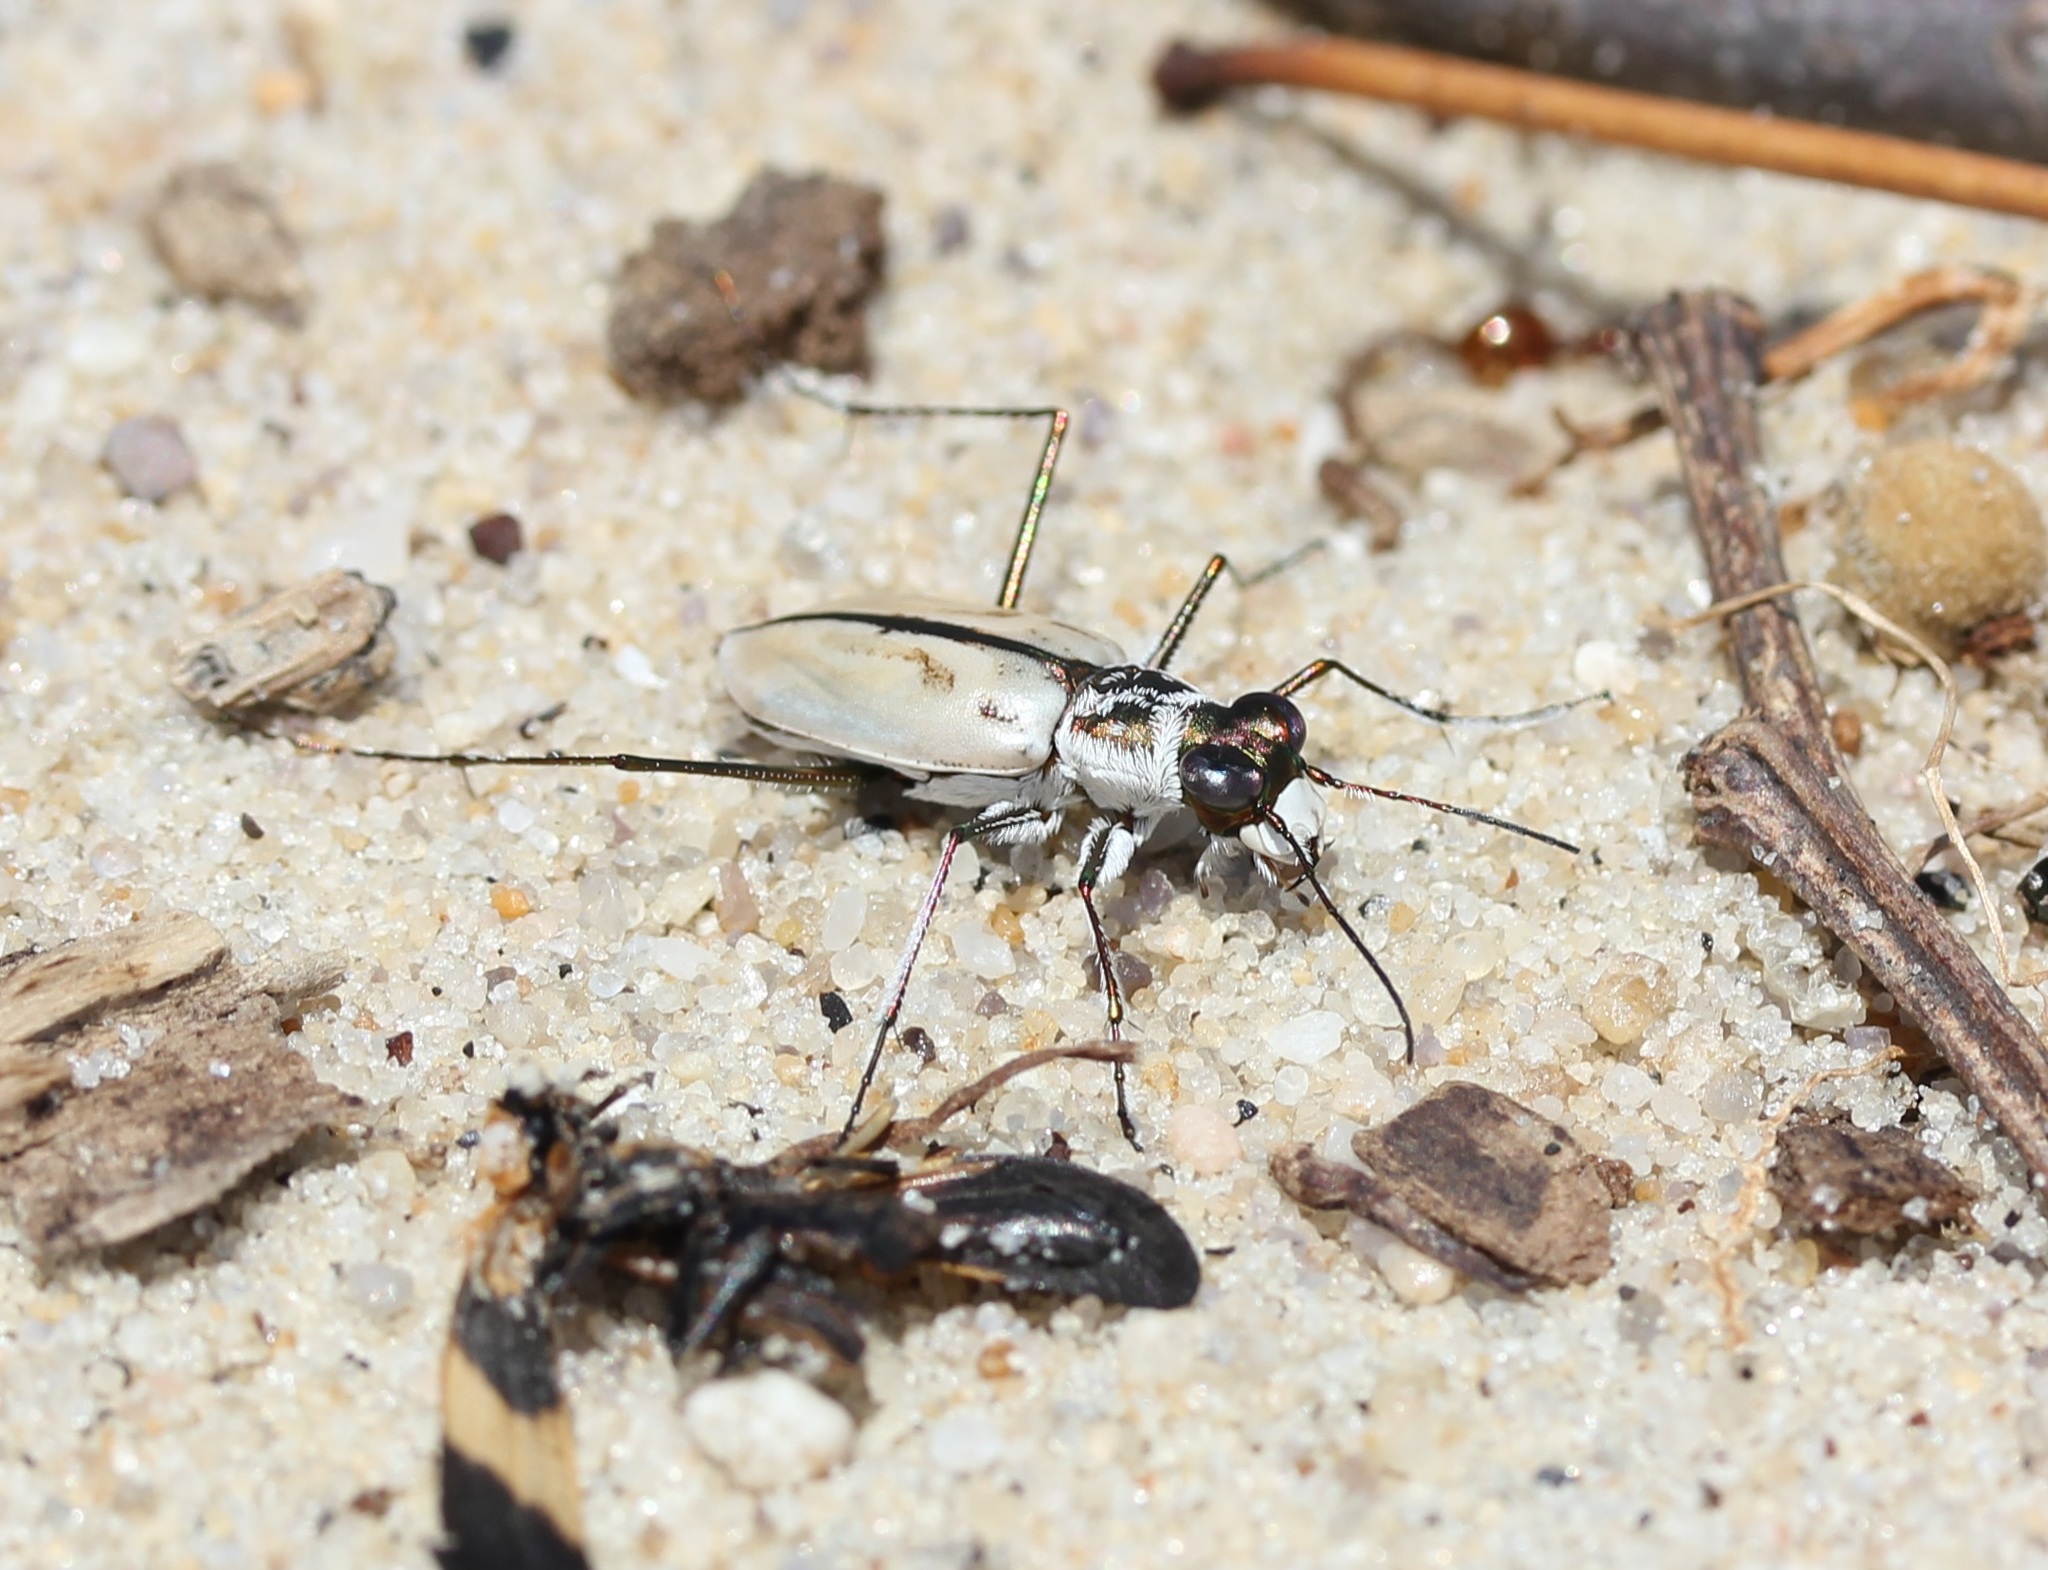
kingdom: Animalia
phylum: Arthropoda
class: Insecta
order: Coleoptera
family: Carabidae
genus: Habroscelimorpha
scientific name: Habroscelimorpha dorsalis
